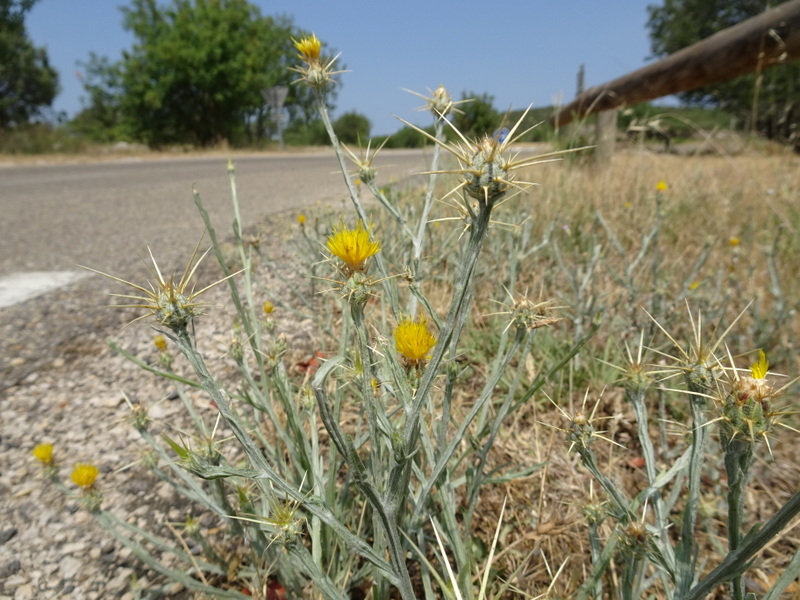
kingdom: Plantae
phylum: Tracheophyta
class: Magnoliopsida
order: Asterales
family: Asteraceae
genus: Centaurea
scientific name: Centaurea solstitialis
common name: Yellow star-thistle
